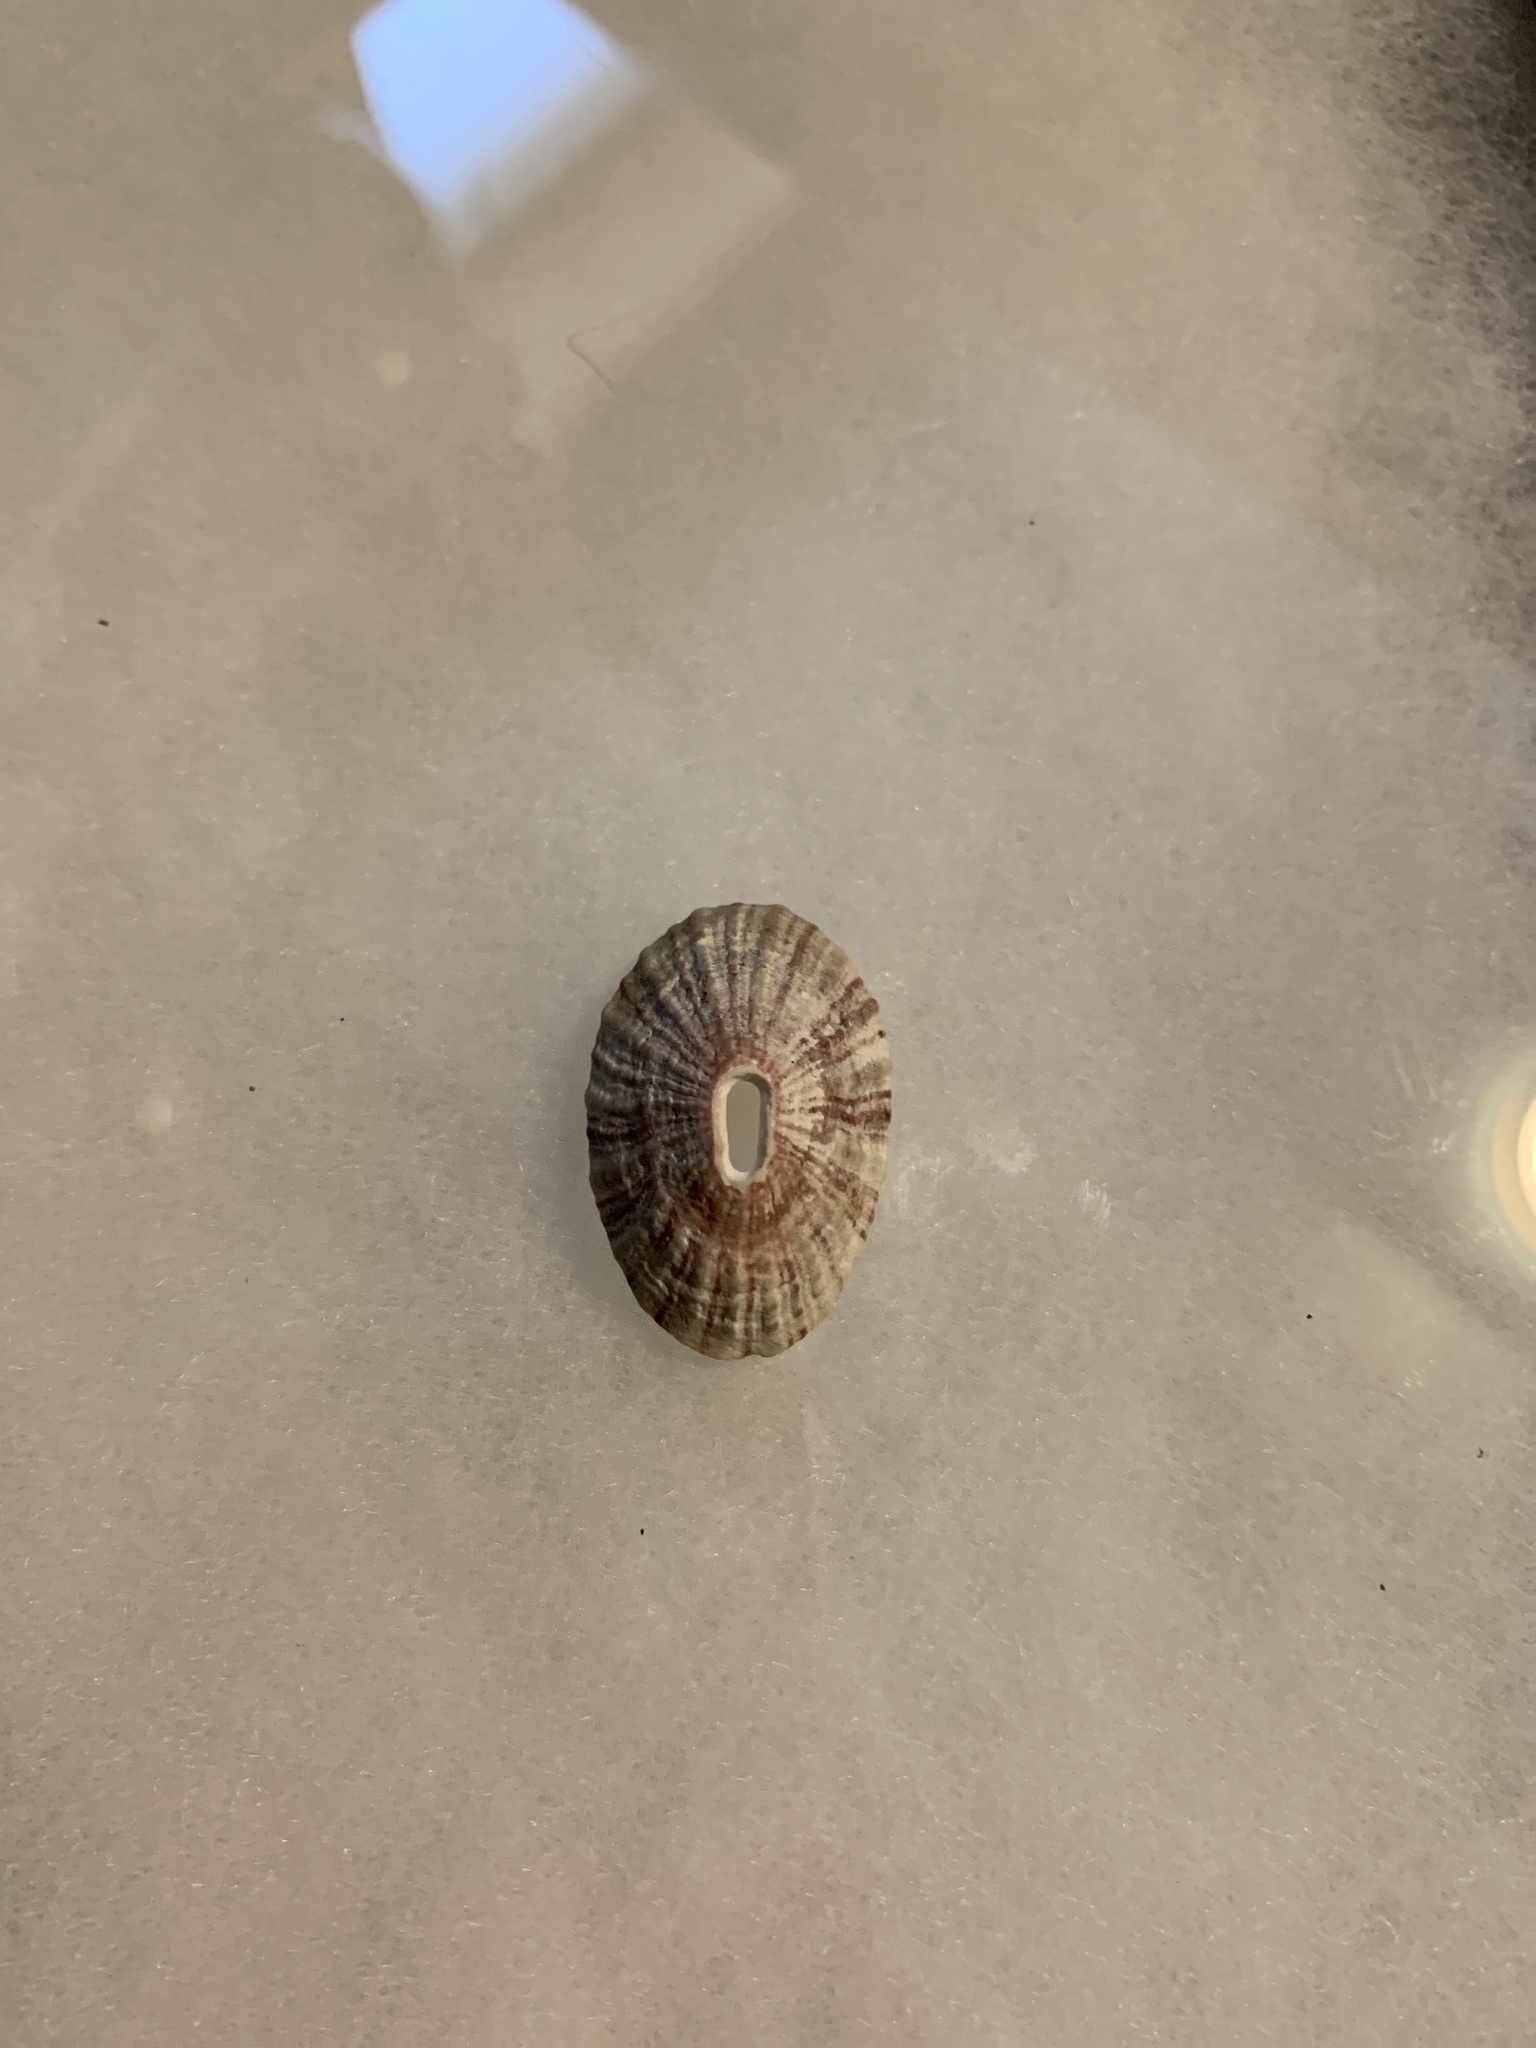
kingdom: Animalia
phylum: Mollusca
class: Gastropoda
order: Lepetellida
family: Fissurellidae
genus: Fissurella
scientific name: Fissurella volcano
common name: Volcano keyhole limpet
